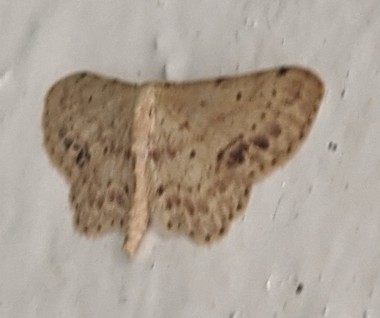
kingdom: Animalia
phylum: Arthropoda
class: Insecta
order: Lepidoptera
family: Geometridae
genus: Idaea
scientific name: Idaea dimidiata
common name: Single-dotted wave
